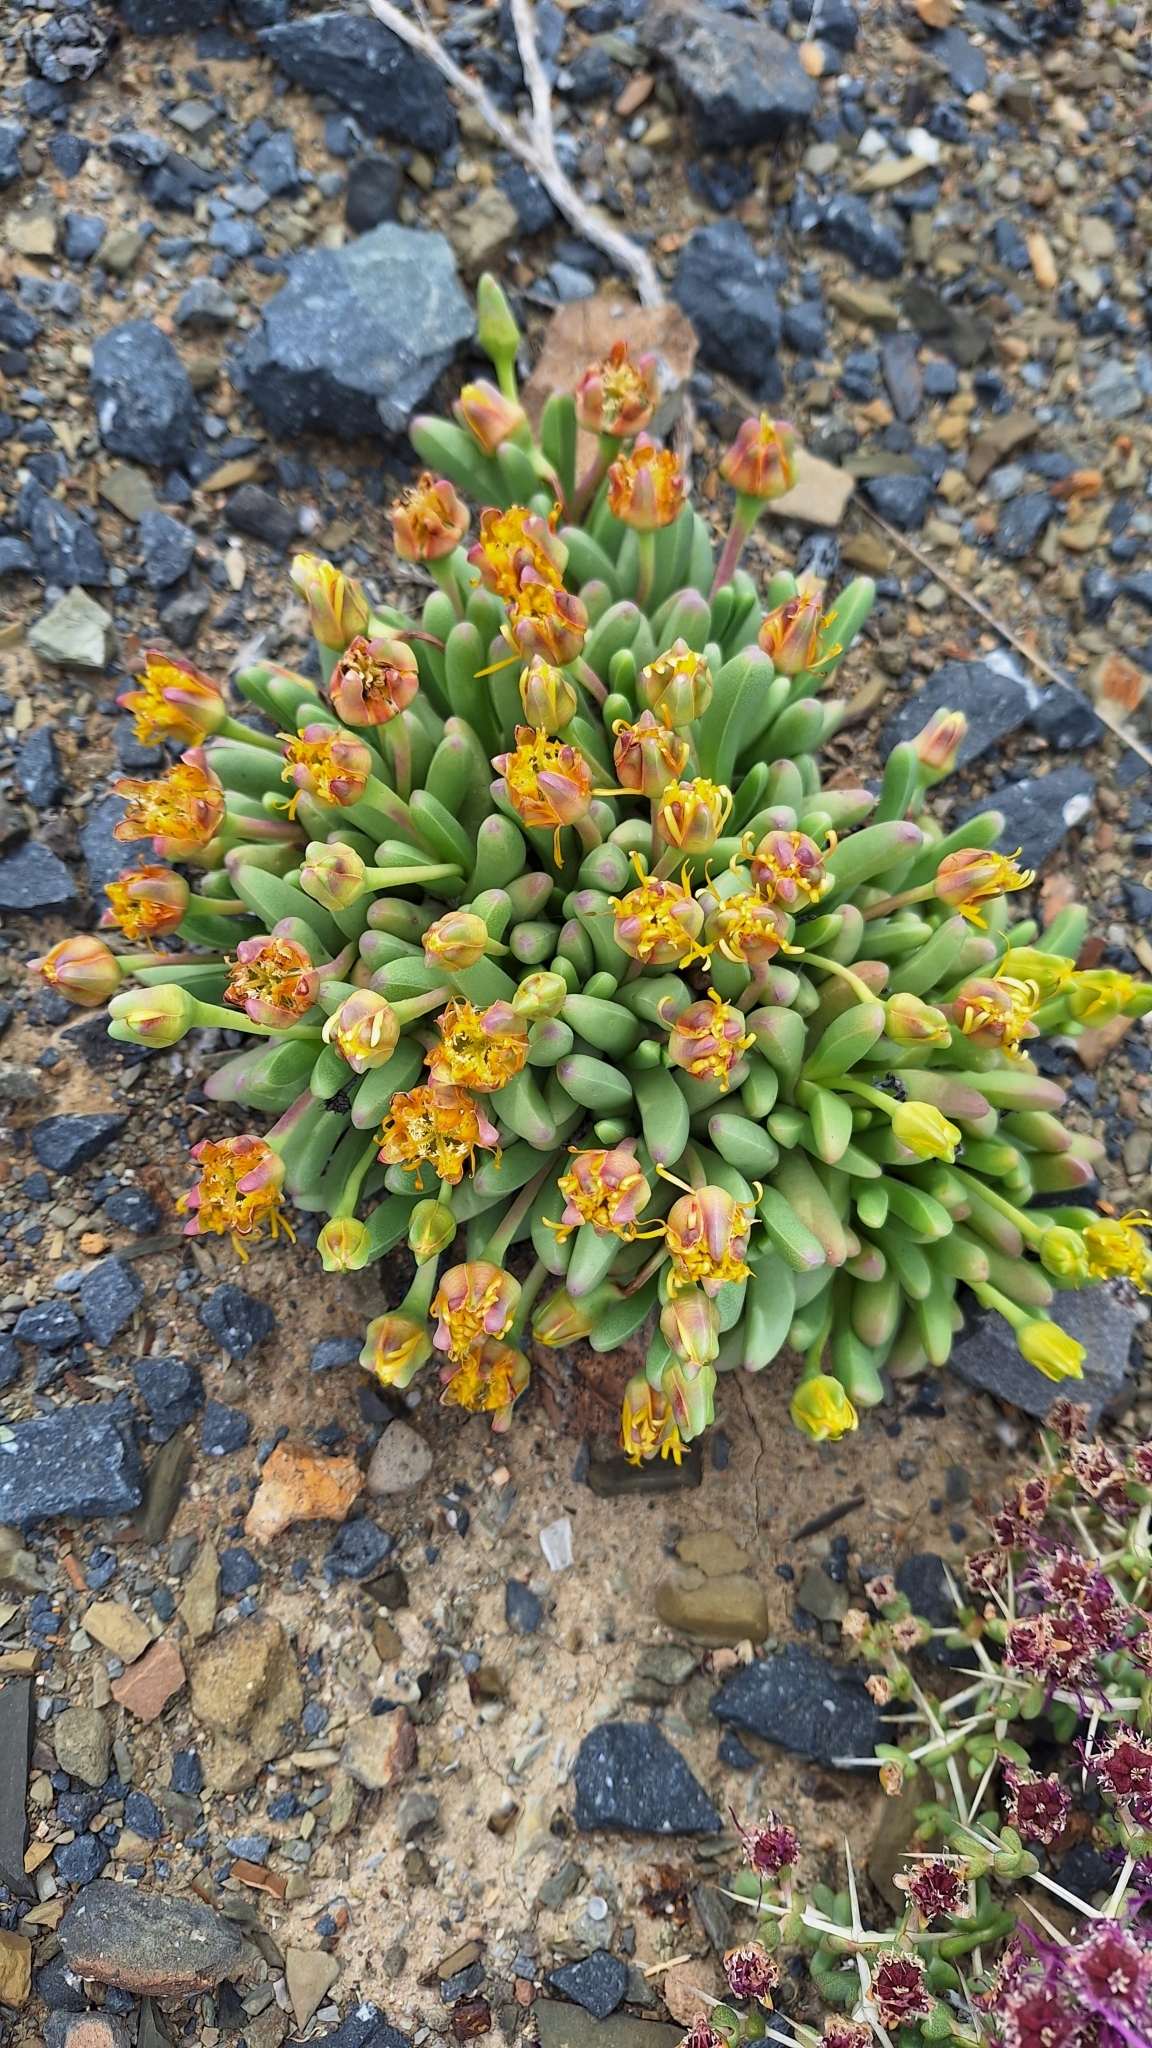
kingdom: Plantae
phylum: Tracheophyta
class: Magnoliopsida
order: Caryophyllales
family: Aizoaceae
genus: Peersia
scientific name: Peersia macradenia
